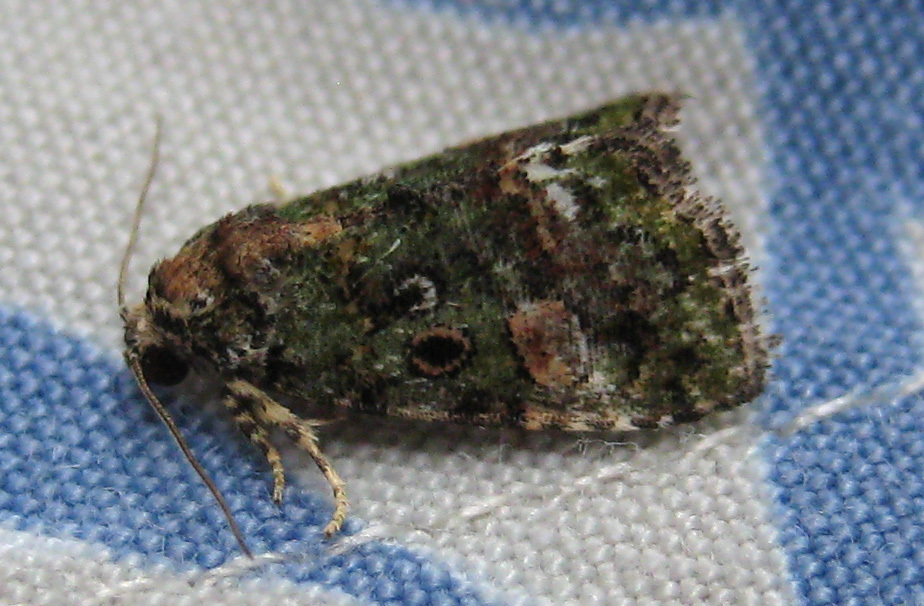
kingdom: Animalia
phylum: Arthropoda
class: Insecta
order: Lepidoptera
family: Noctuidae
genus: Lithacodia
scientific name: Lithacodia musta
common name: Small mossy glyph
